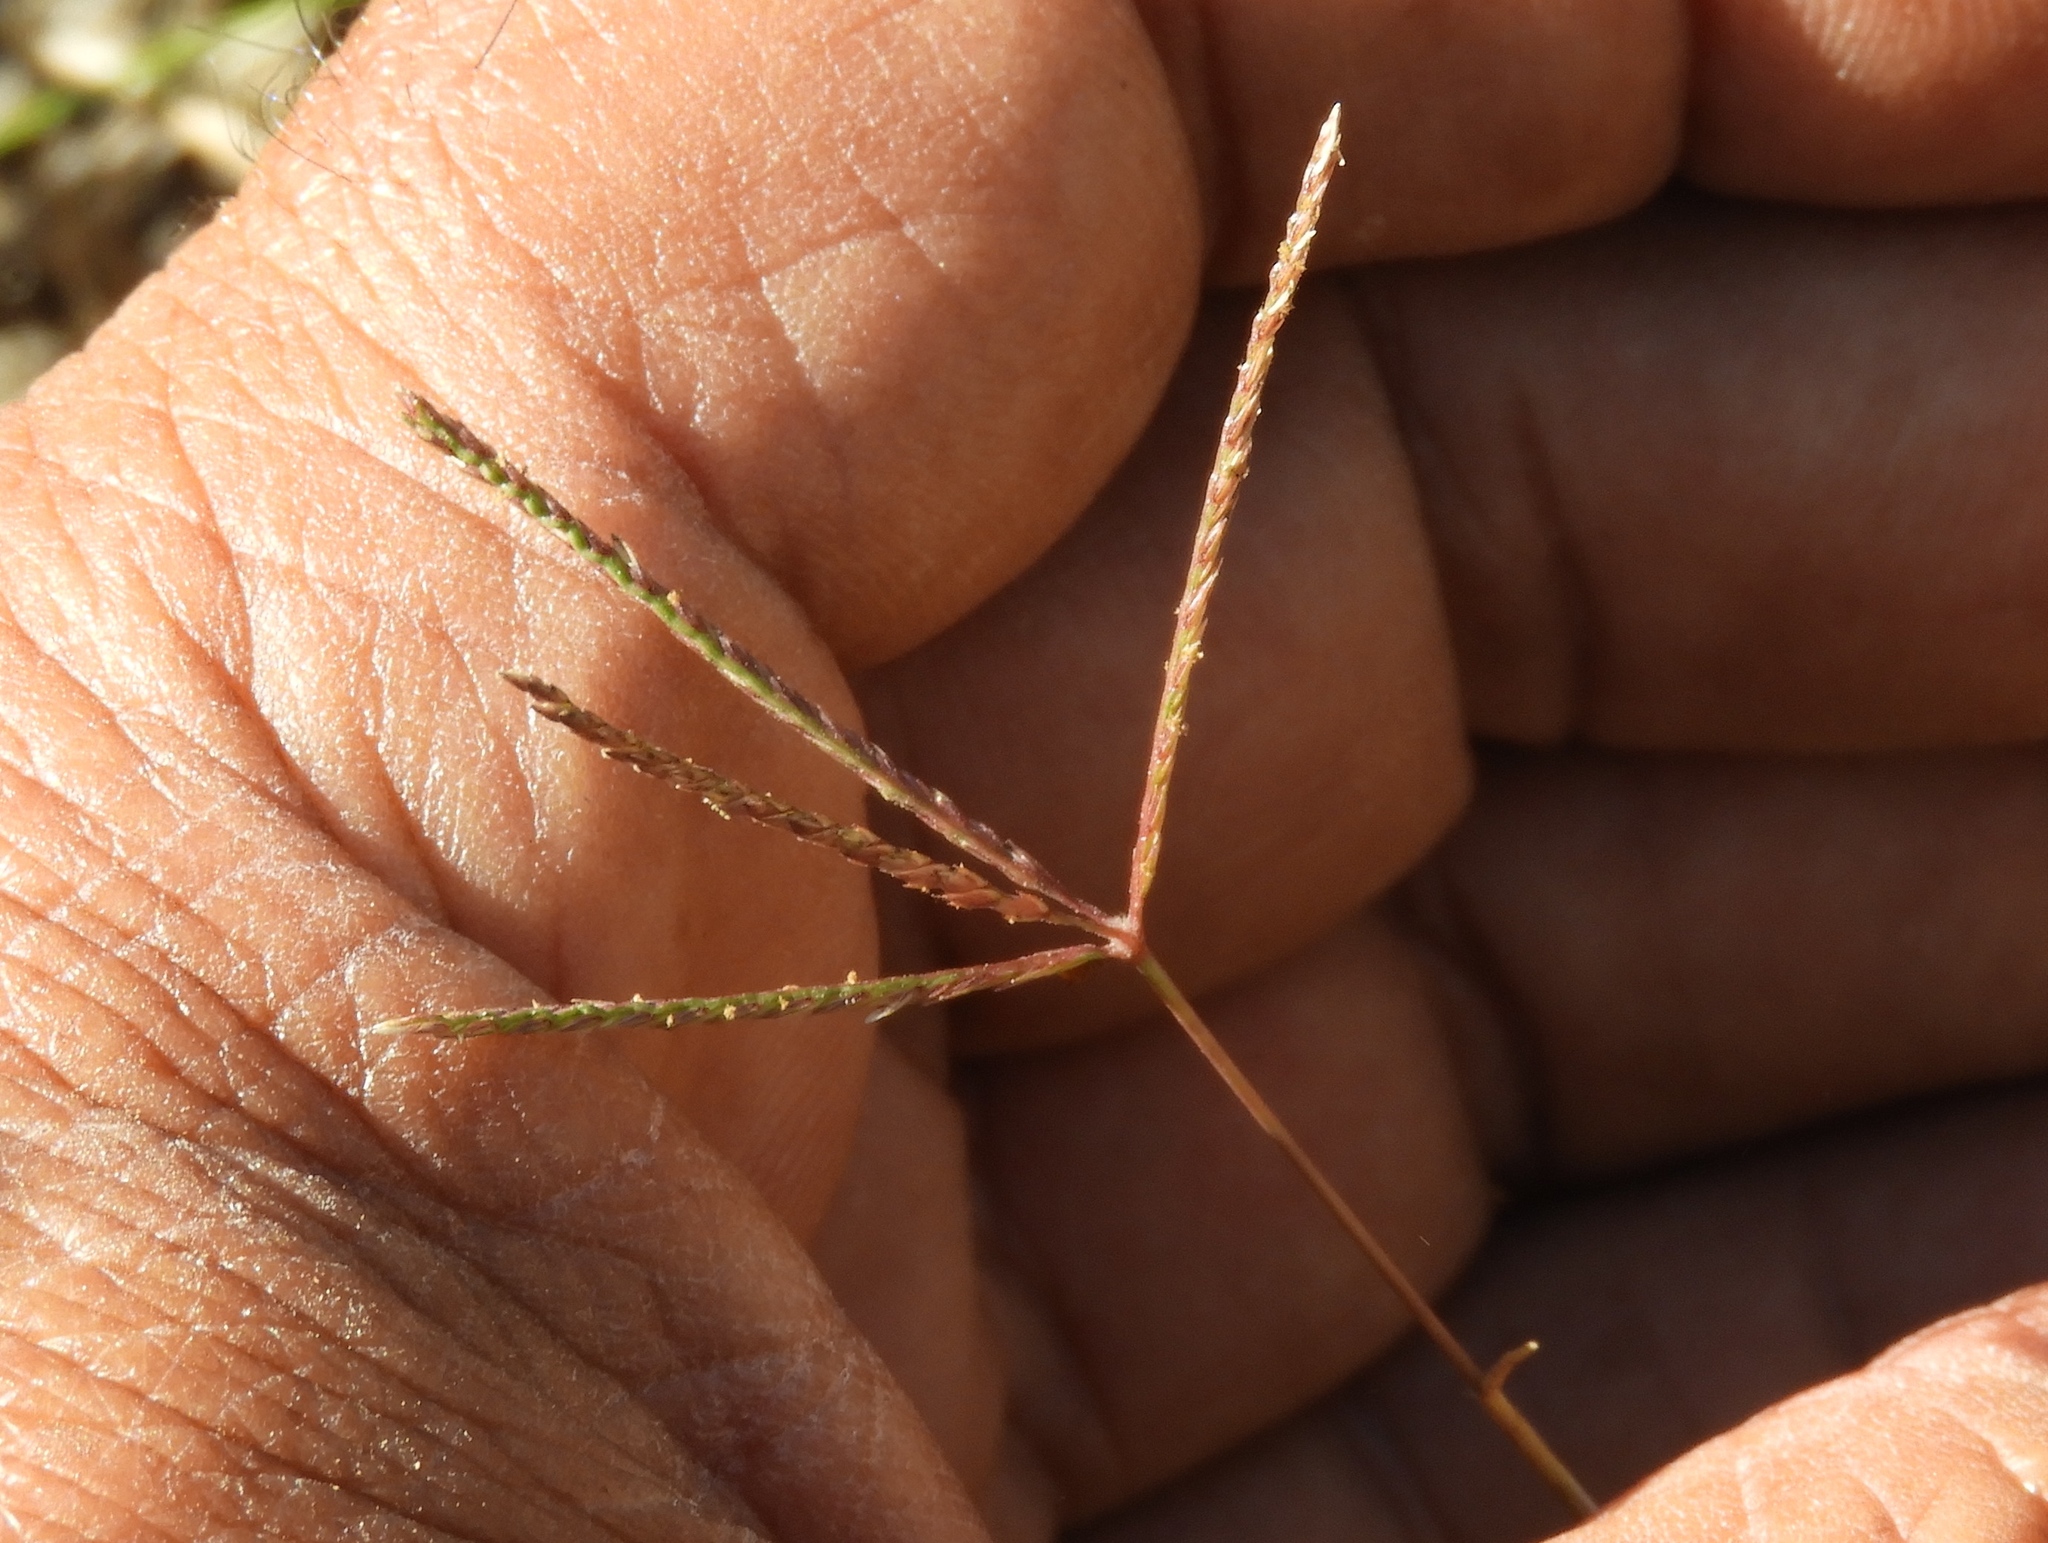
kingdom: Plantae
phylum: Tracheophyta
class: Liliopsida
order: Poales
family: Poaceae
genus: Cynodon
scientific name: Cynodon dactylon
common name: Bermuda grass
